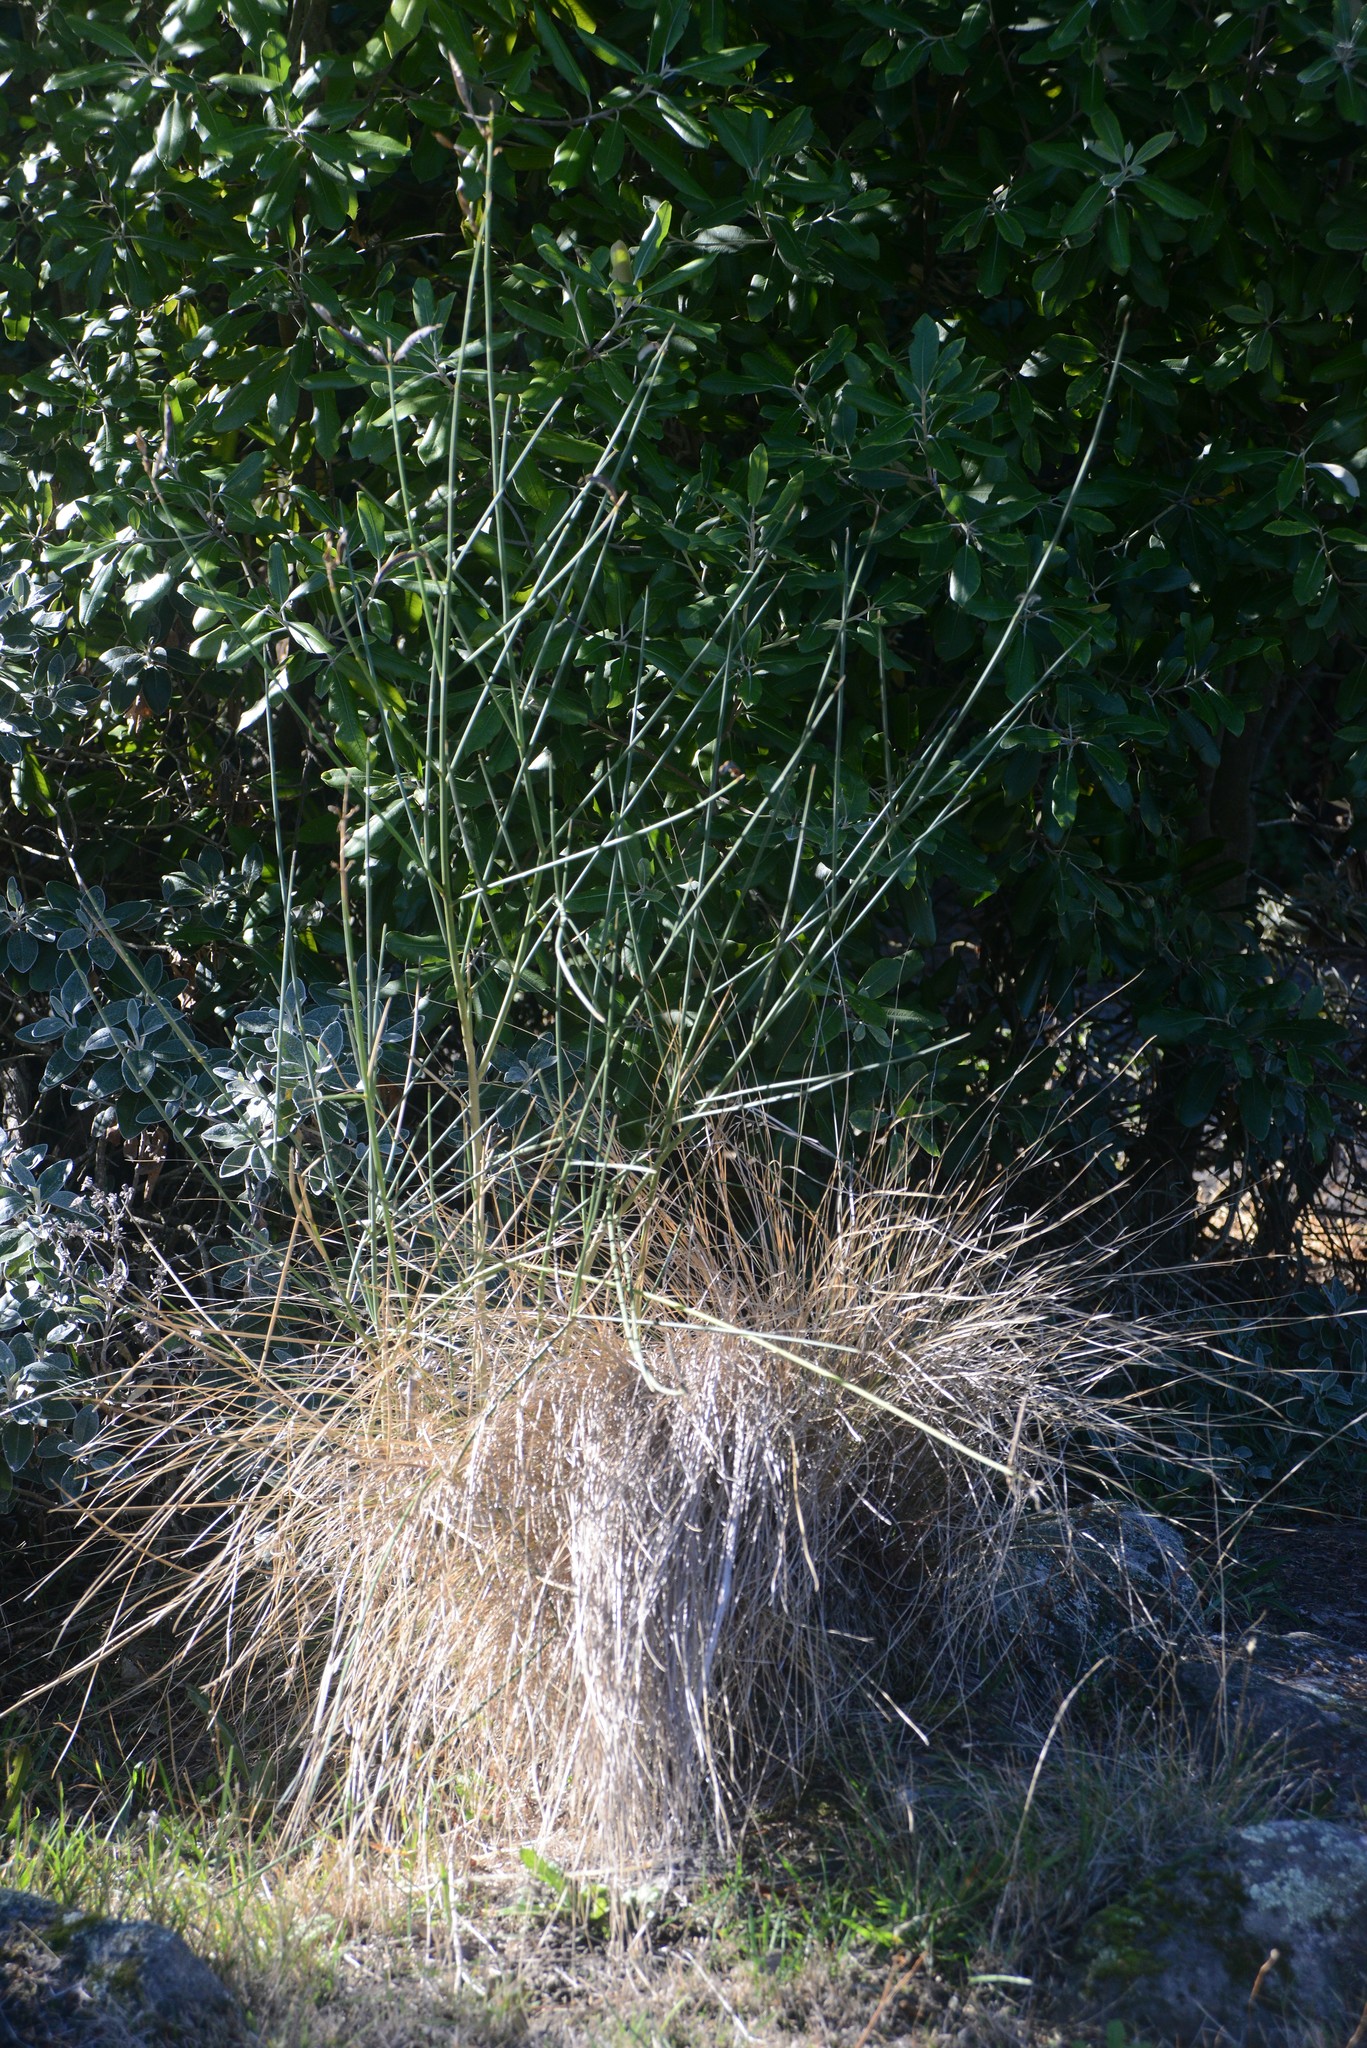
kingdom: Plantae
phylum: Tracheophyta
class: Magnoliopsida
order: Fabales
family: Fabaceae
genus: Spartium
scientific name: Spartium junceum
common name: Spanish broom
